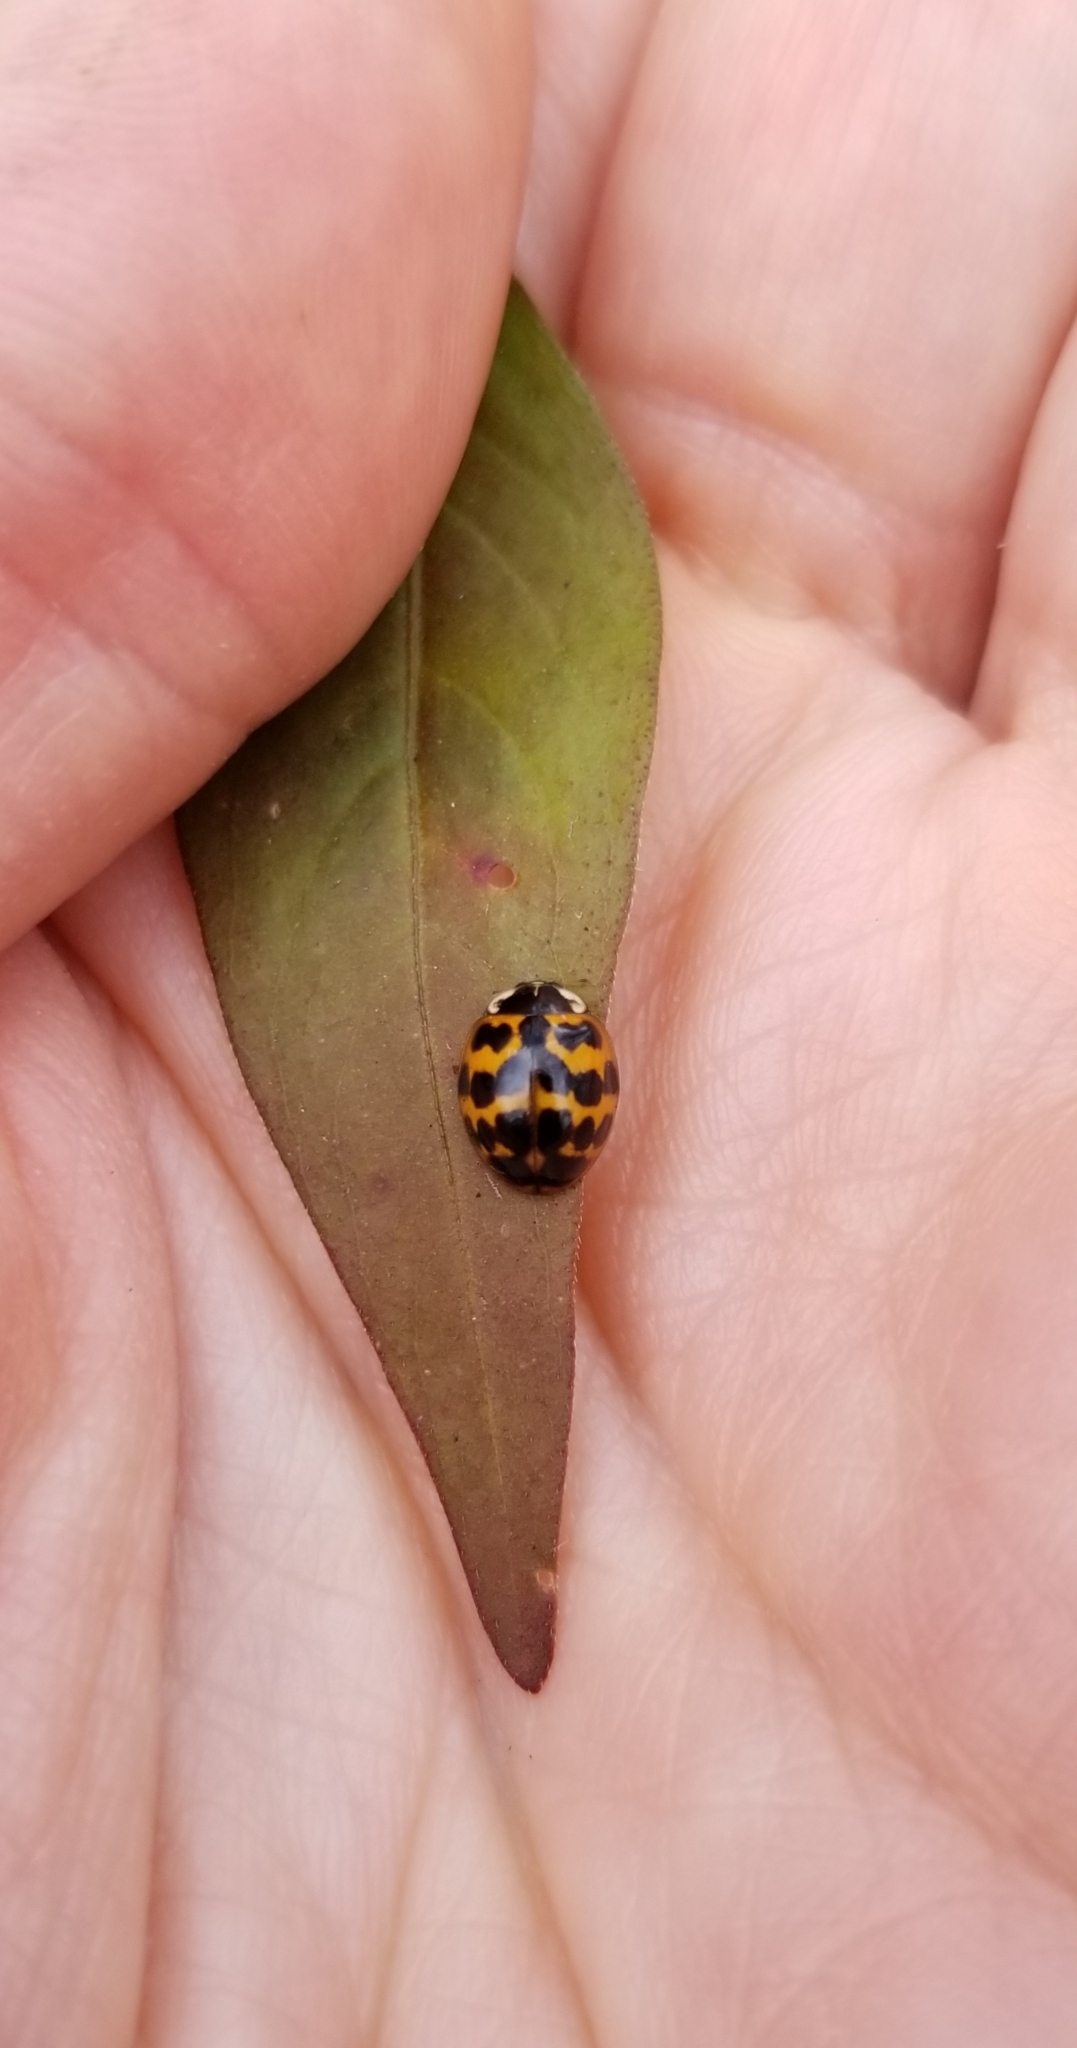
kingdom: Animalia
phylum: Arthropoda
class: Insecta
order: Coleoptera
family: Coccinellidae
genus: Harmonia
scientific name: Harmonia axyridis
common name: Harlequin ladybird
